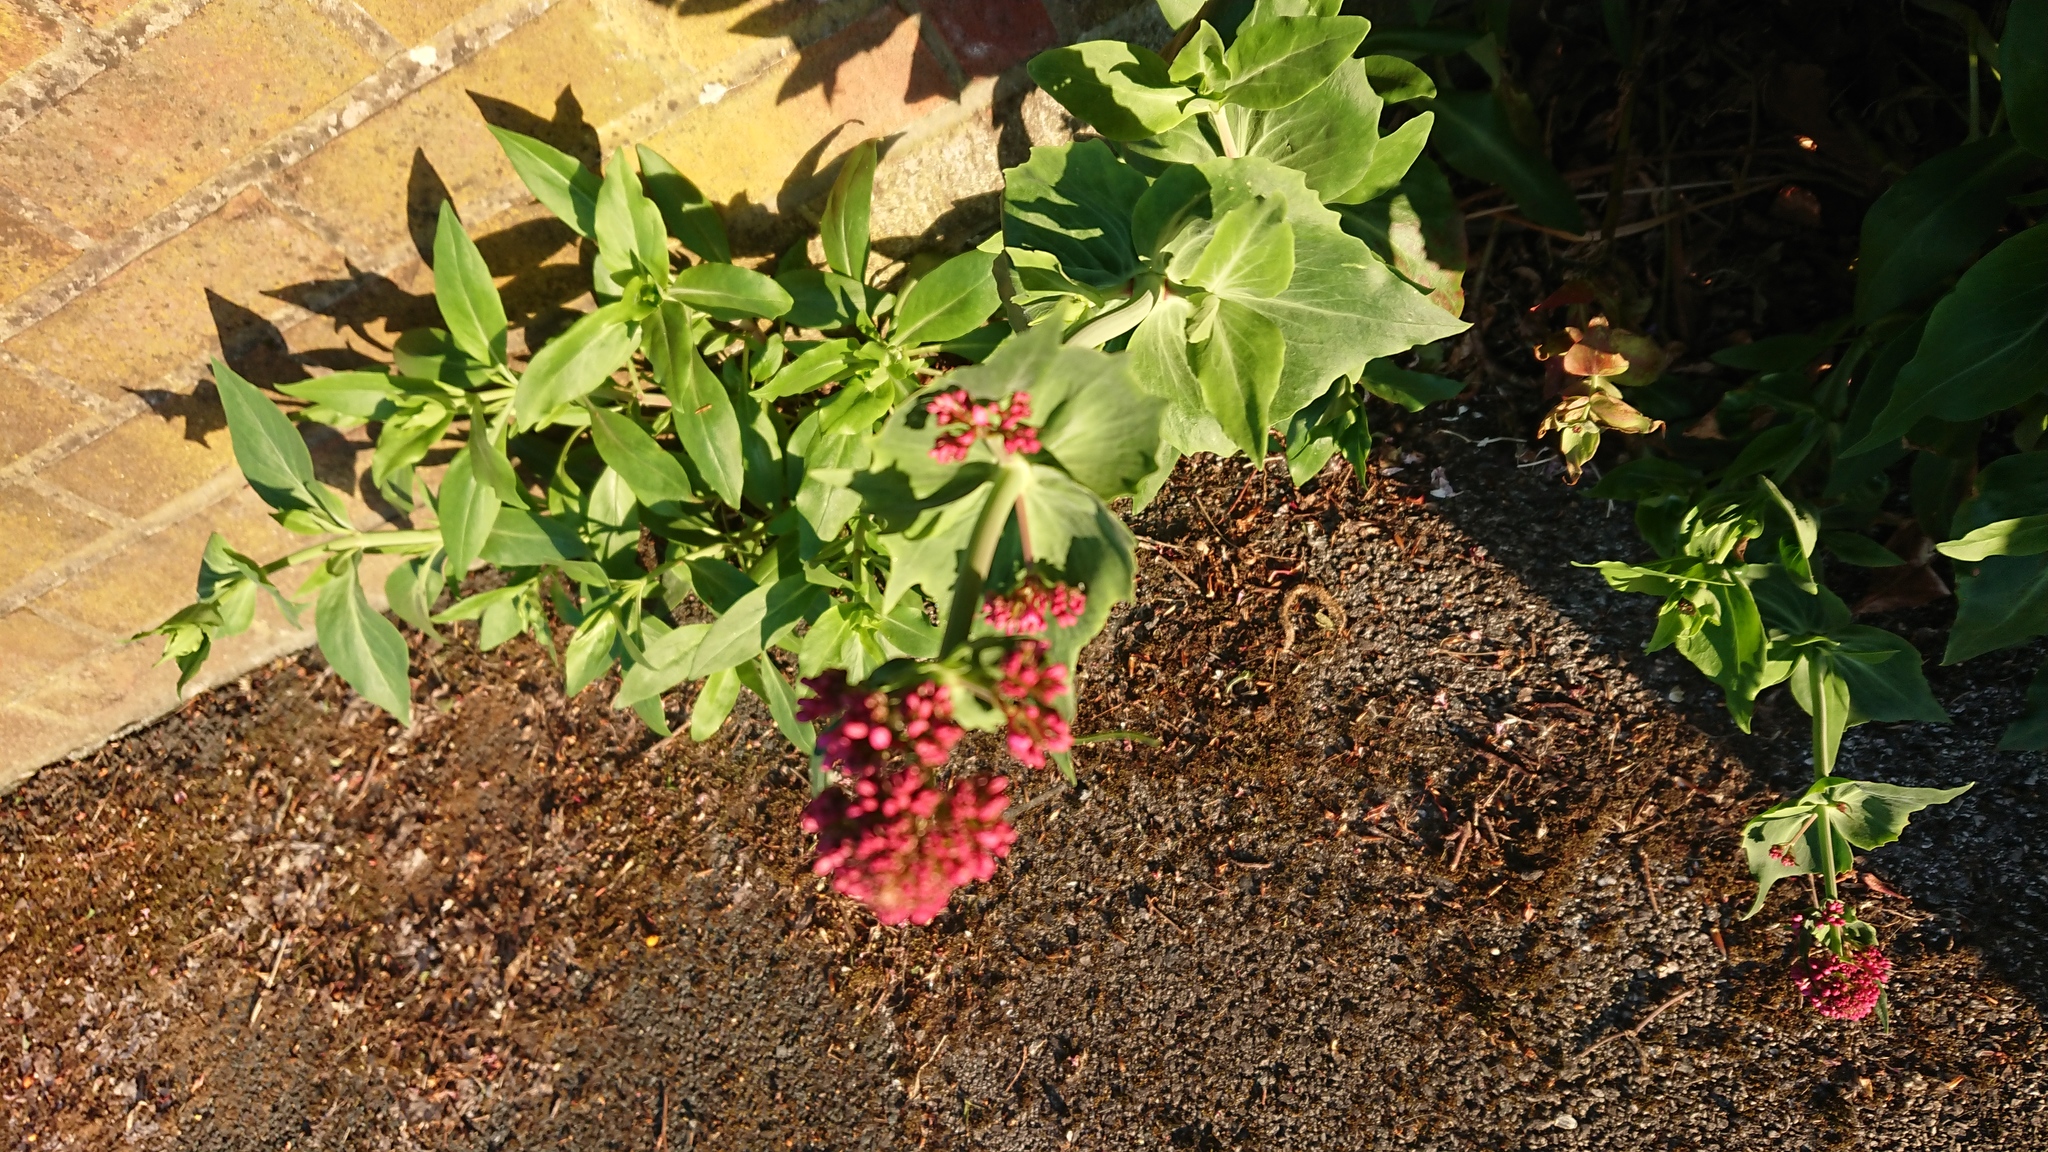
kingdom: Plantae
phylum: Tracheophyta
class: Magnoliopsida
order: Dipsacales
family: Caprifoliaceae
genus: Centranthus
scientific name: Centranthus ruber
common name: Red valerian
